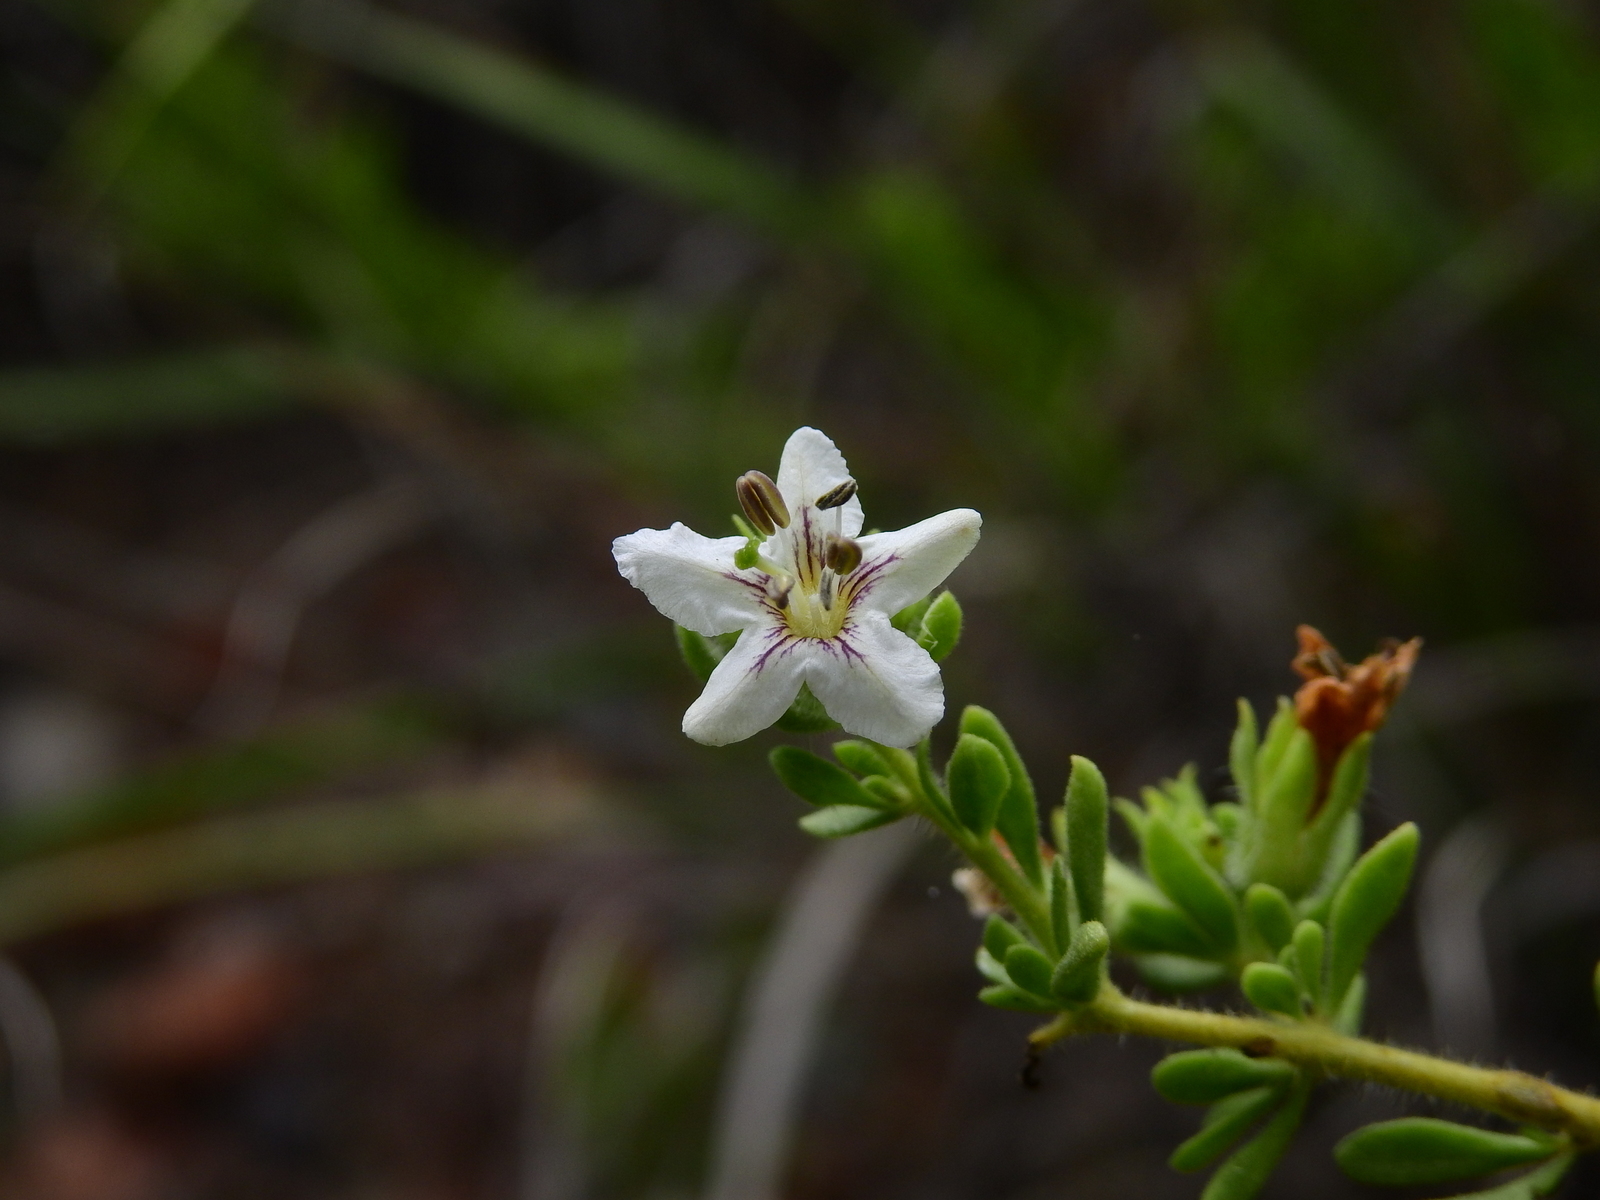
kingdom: Plantae
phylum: Tracheophyta
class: Magnoliopsida
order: Solanales
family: Solanaceae
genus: Lycium
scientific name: Lycium chilense
